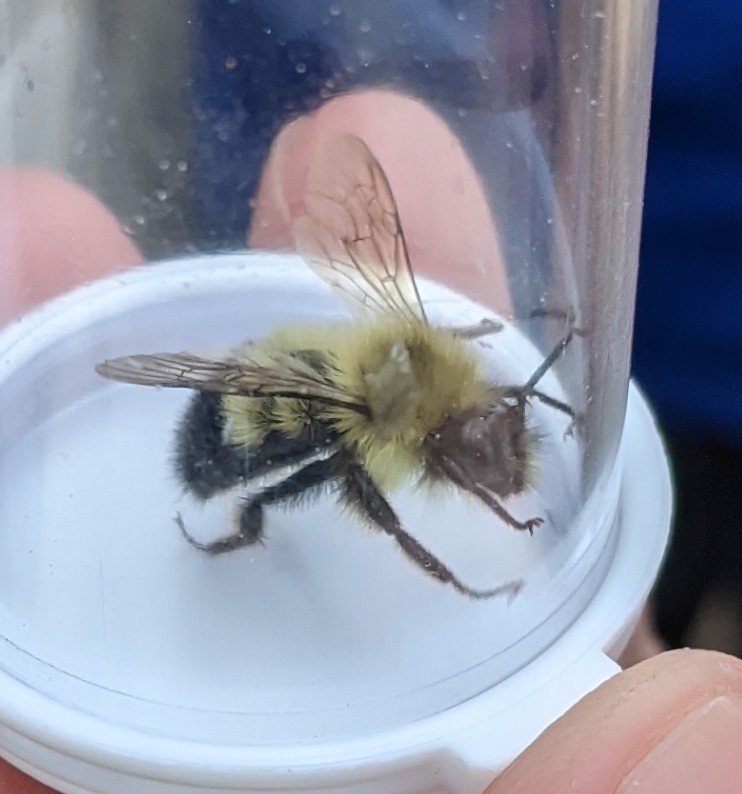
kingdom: Animalia
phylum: Arthropoda
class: Insecta
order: Hymenoptera
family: Apidae
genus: Pyrobombus
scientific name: Pyrobombus
